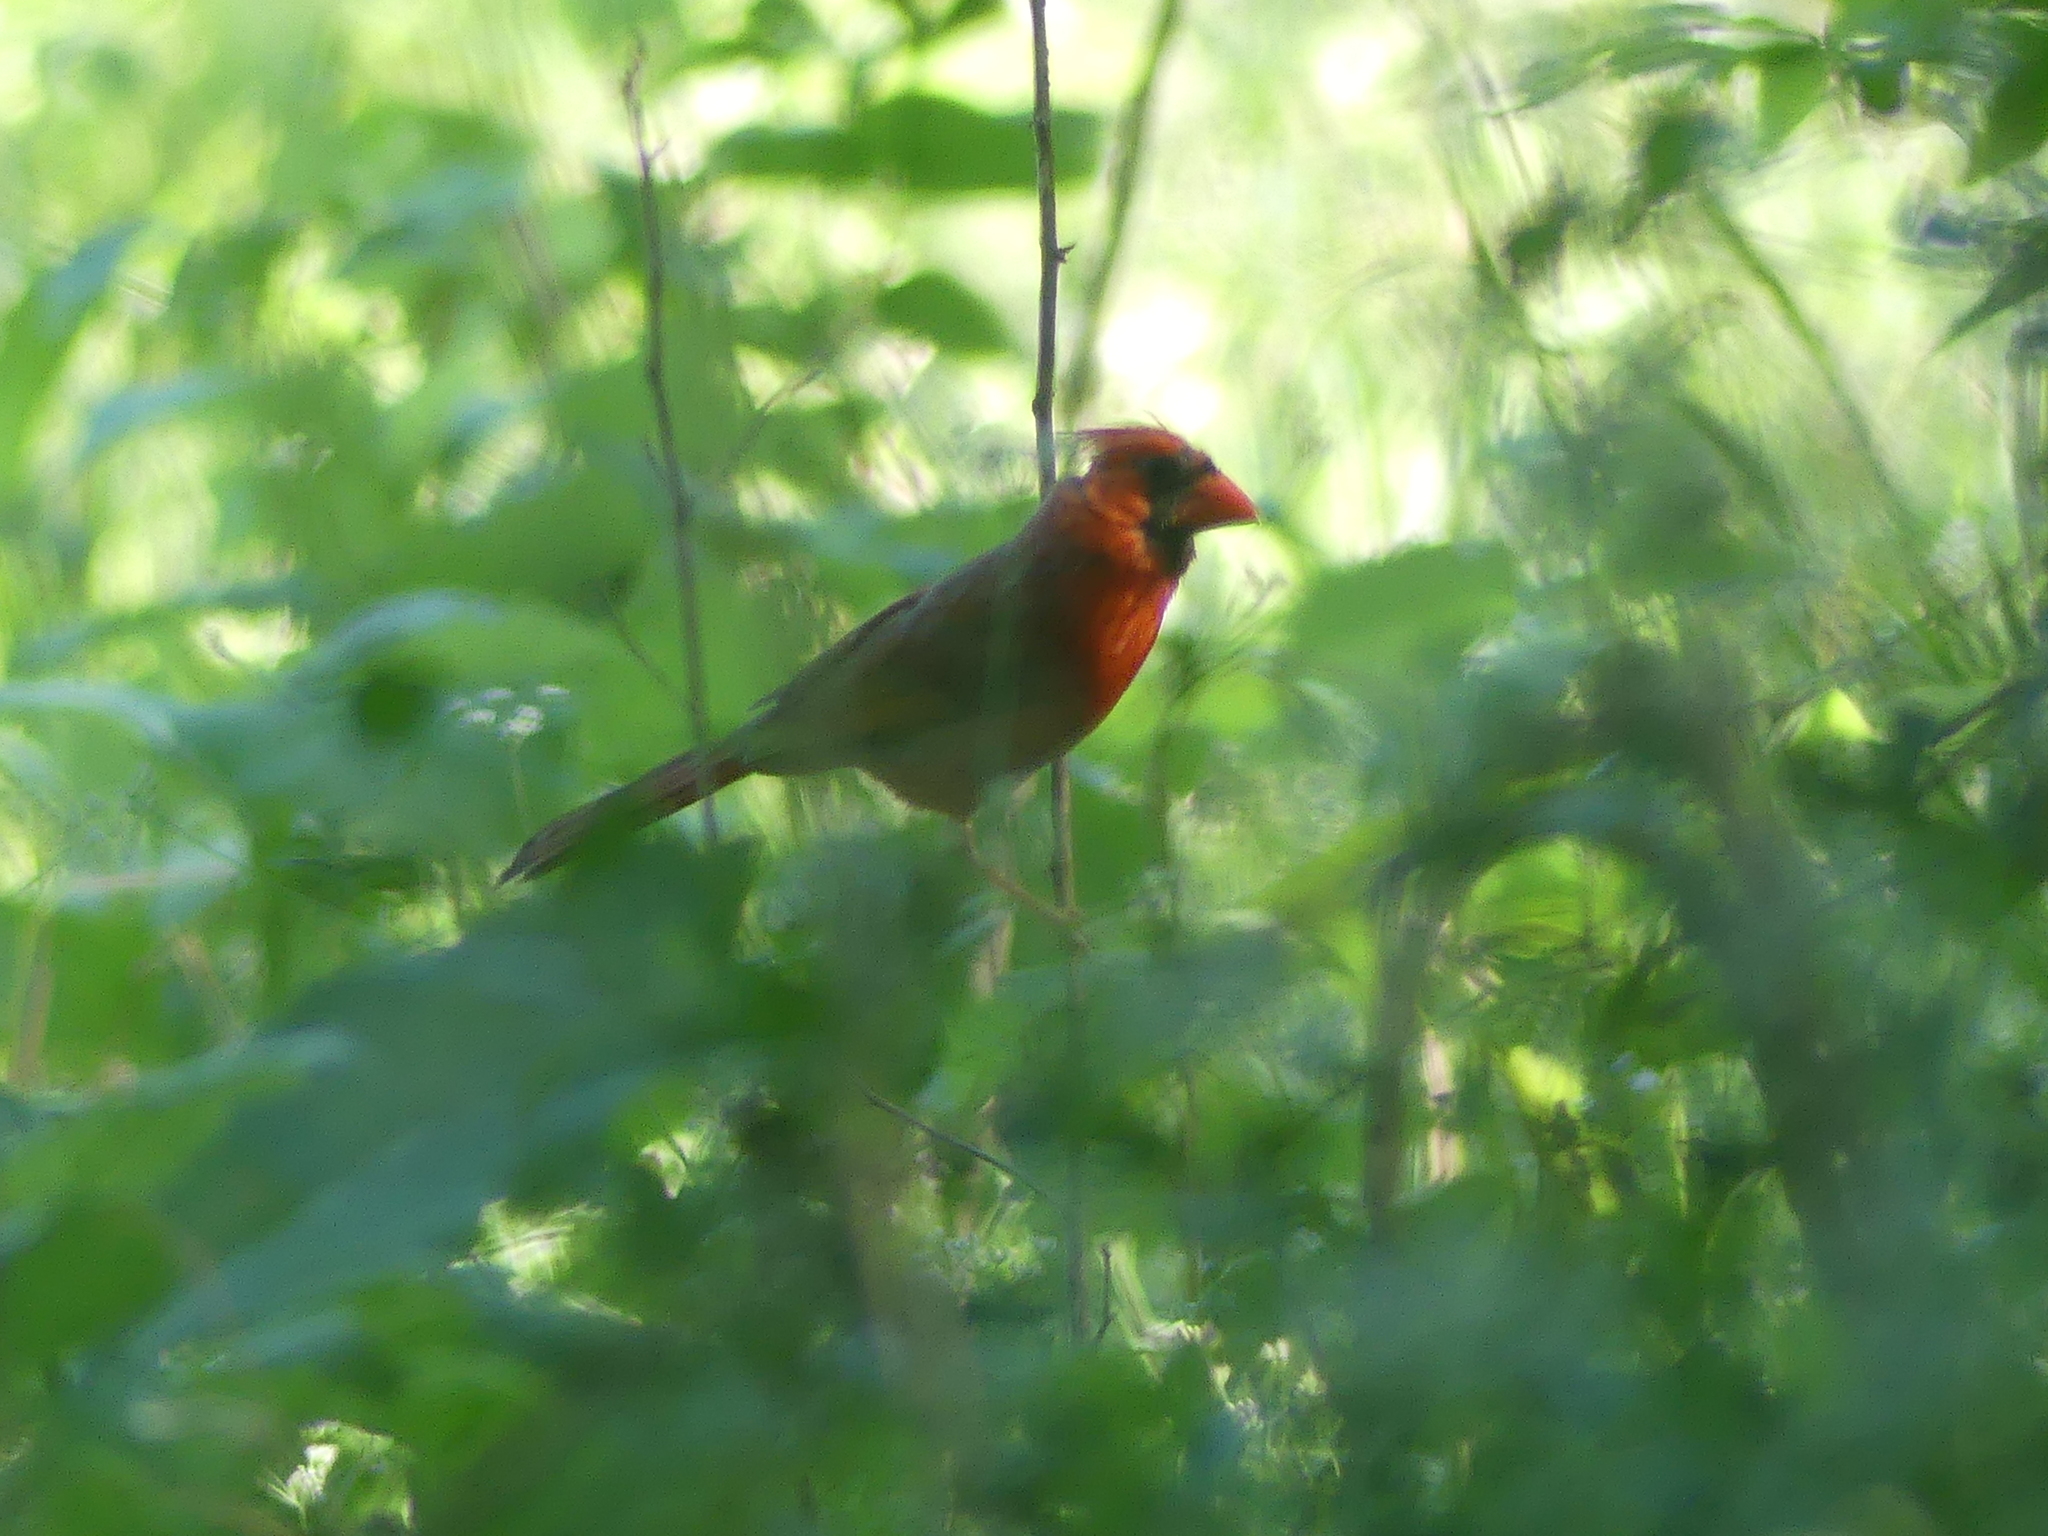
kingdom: Animalia
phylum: Chordata
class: Aves
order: Passeriformes
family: Cardinalidae
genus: Cardinalis
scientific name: Cardinalis cardinalis
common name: Northern cardinal
